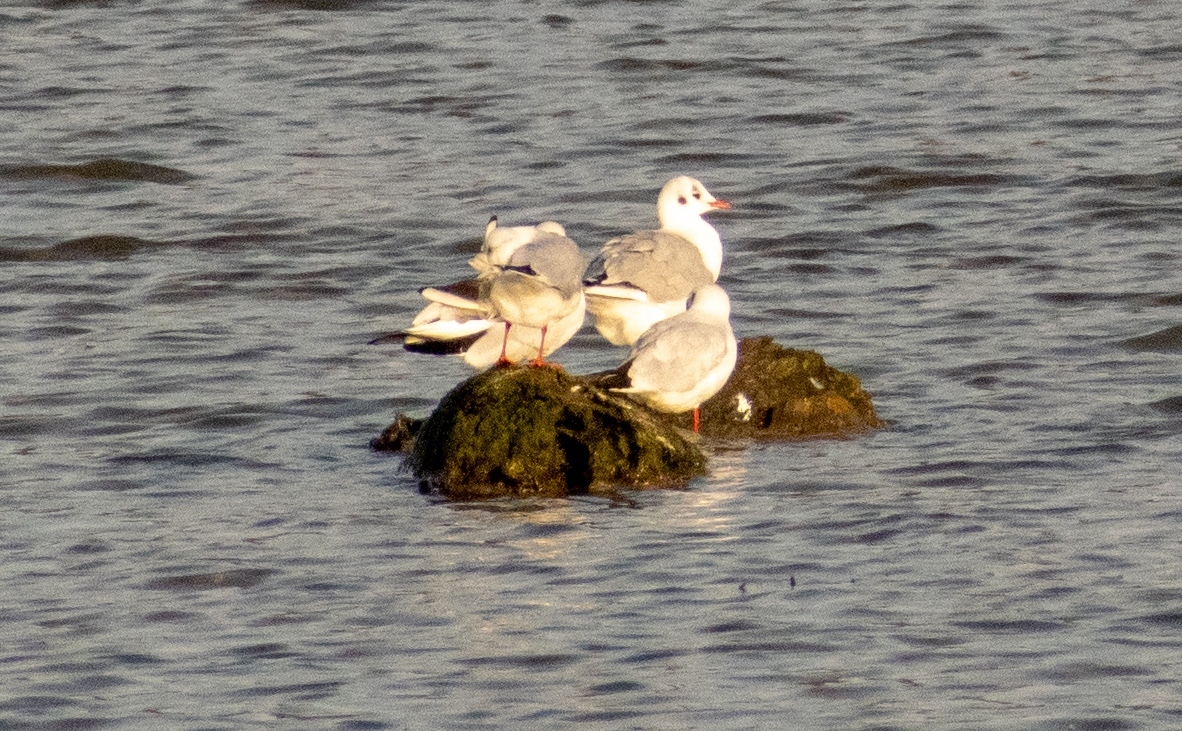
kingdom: Animalia
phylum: Chordata
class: Aves
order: Charadriiformes
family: Laridae
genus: Chroicocephalus
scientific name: Chroicocephalus ridibundus
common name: Black-headed gull
